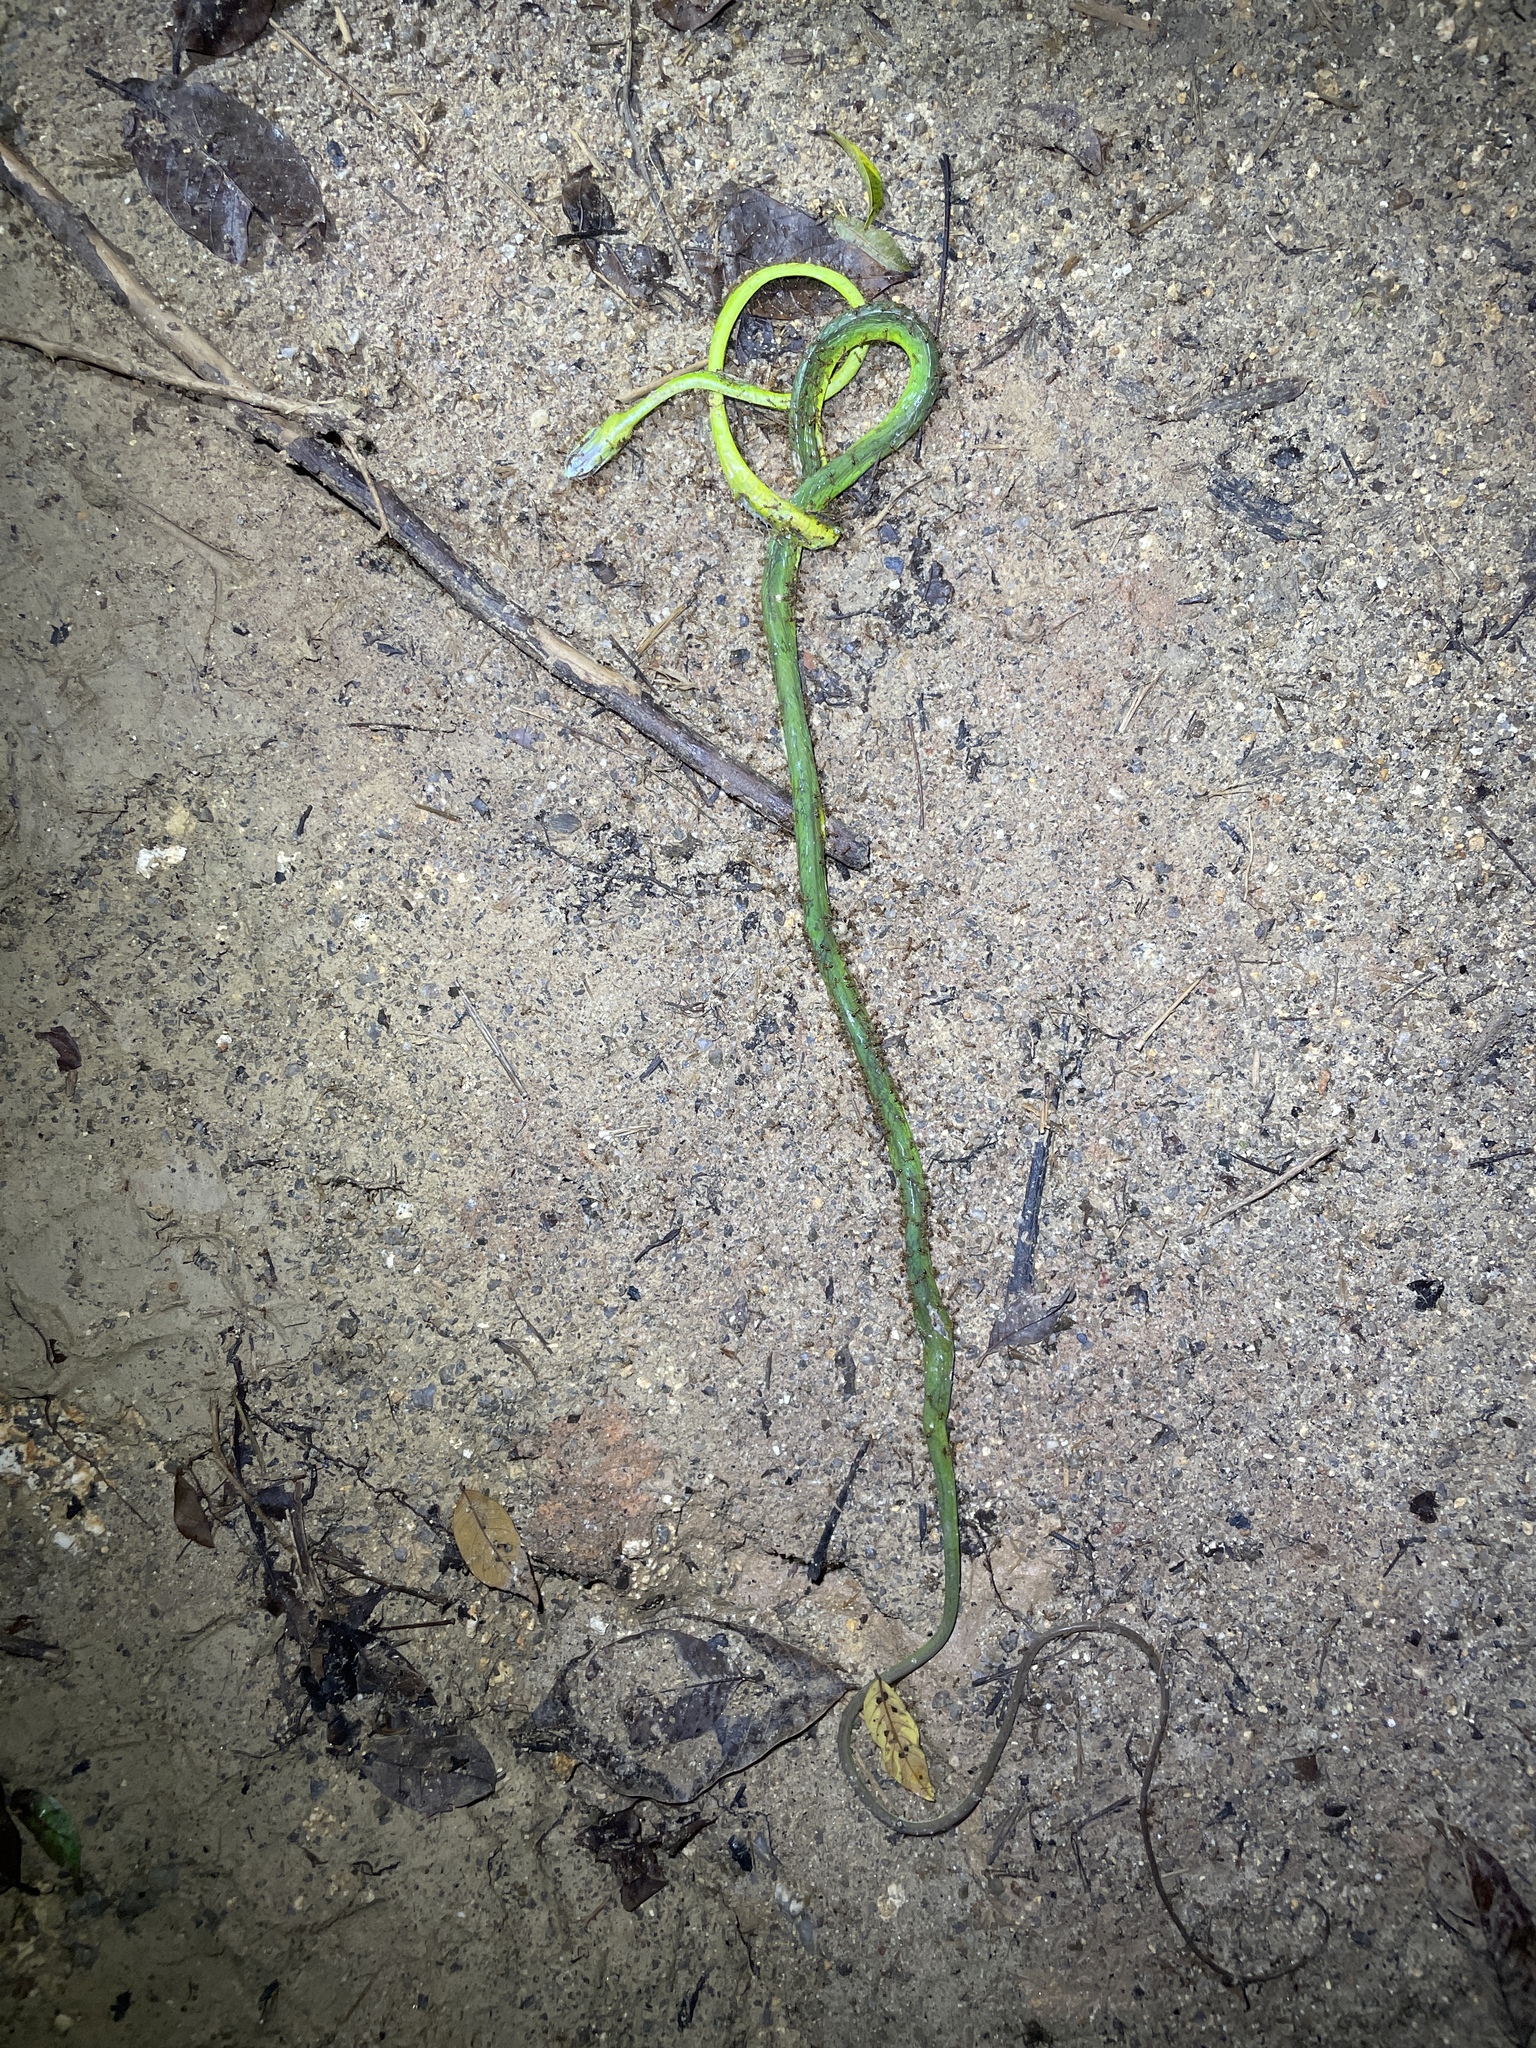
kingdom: Animalia
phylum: Chordata
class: Squamata
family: Colubridae
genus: Ahaetulla
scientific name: Ahaetulla prasina
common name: Oriental whip snake
